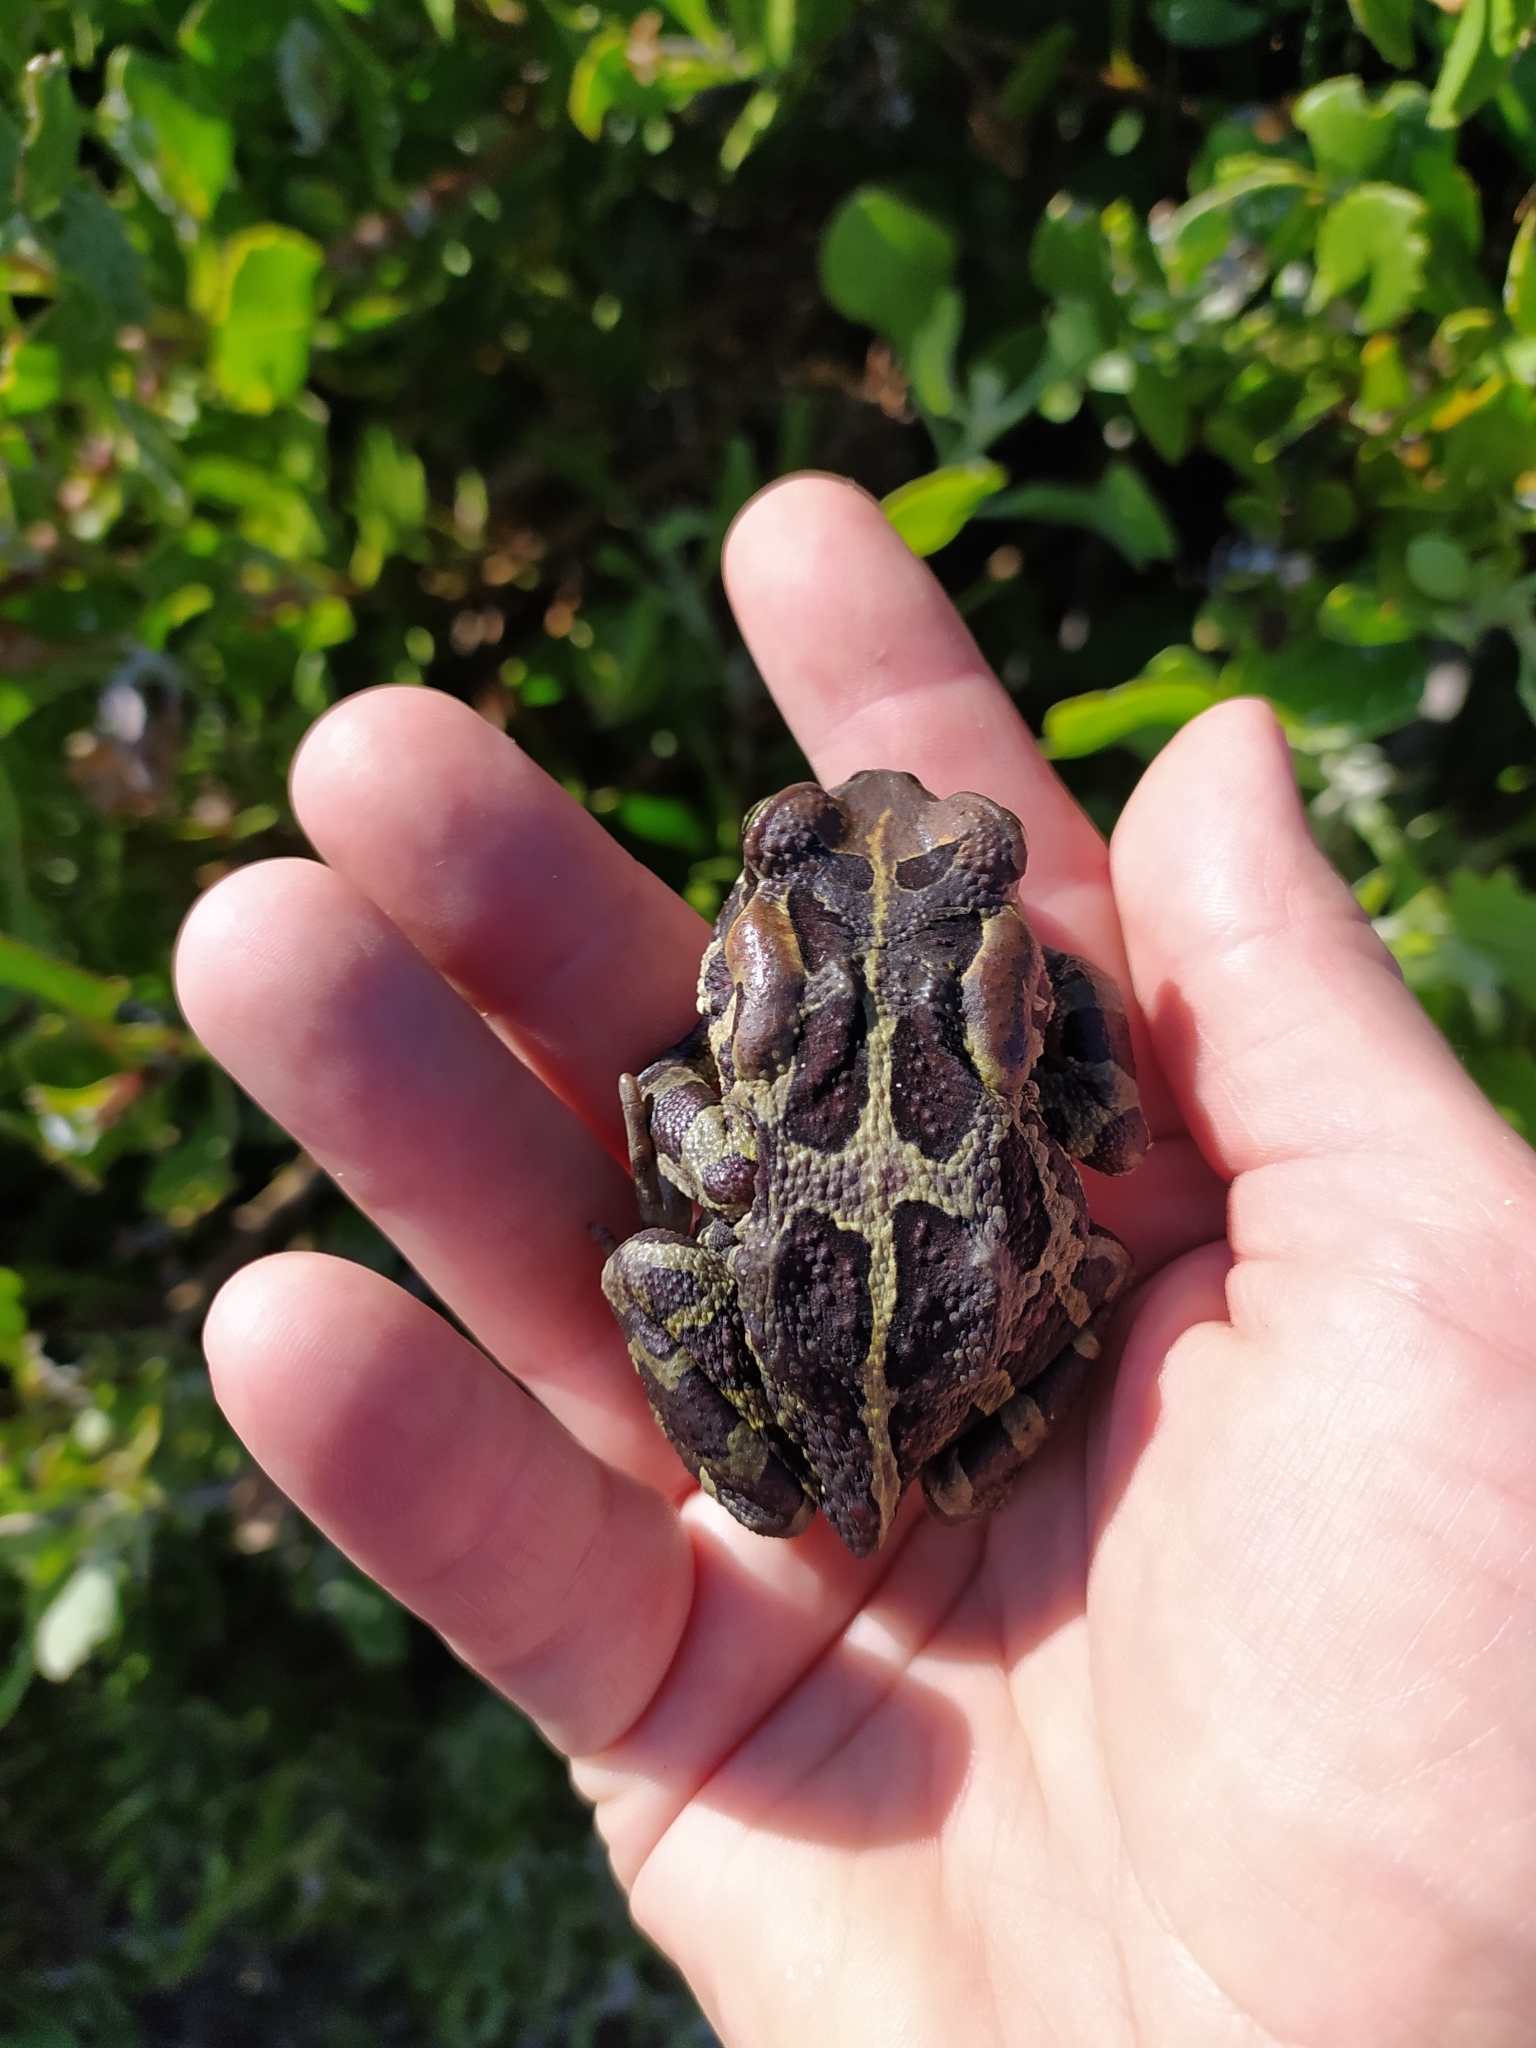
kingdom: Animalia
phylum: Chordata
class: Amphibia
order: Anura
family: Bufonidae
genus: Sclerophrys
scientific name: Sclerophrys pantherina
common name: Panther toad
